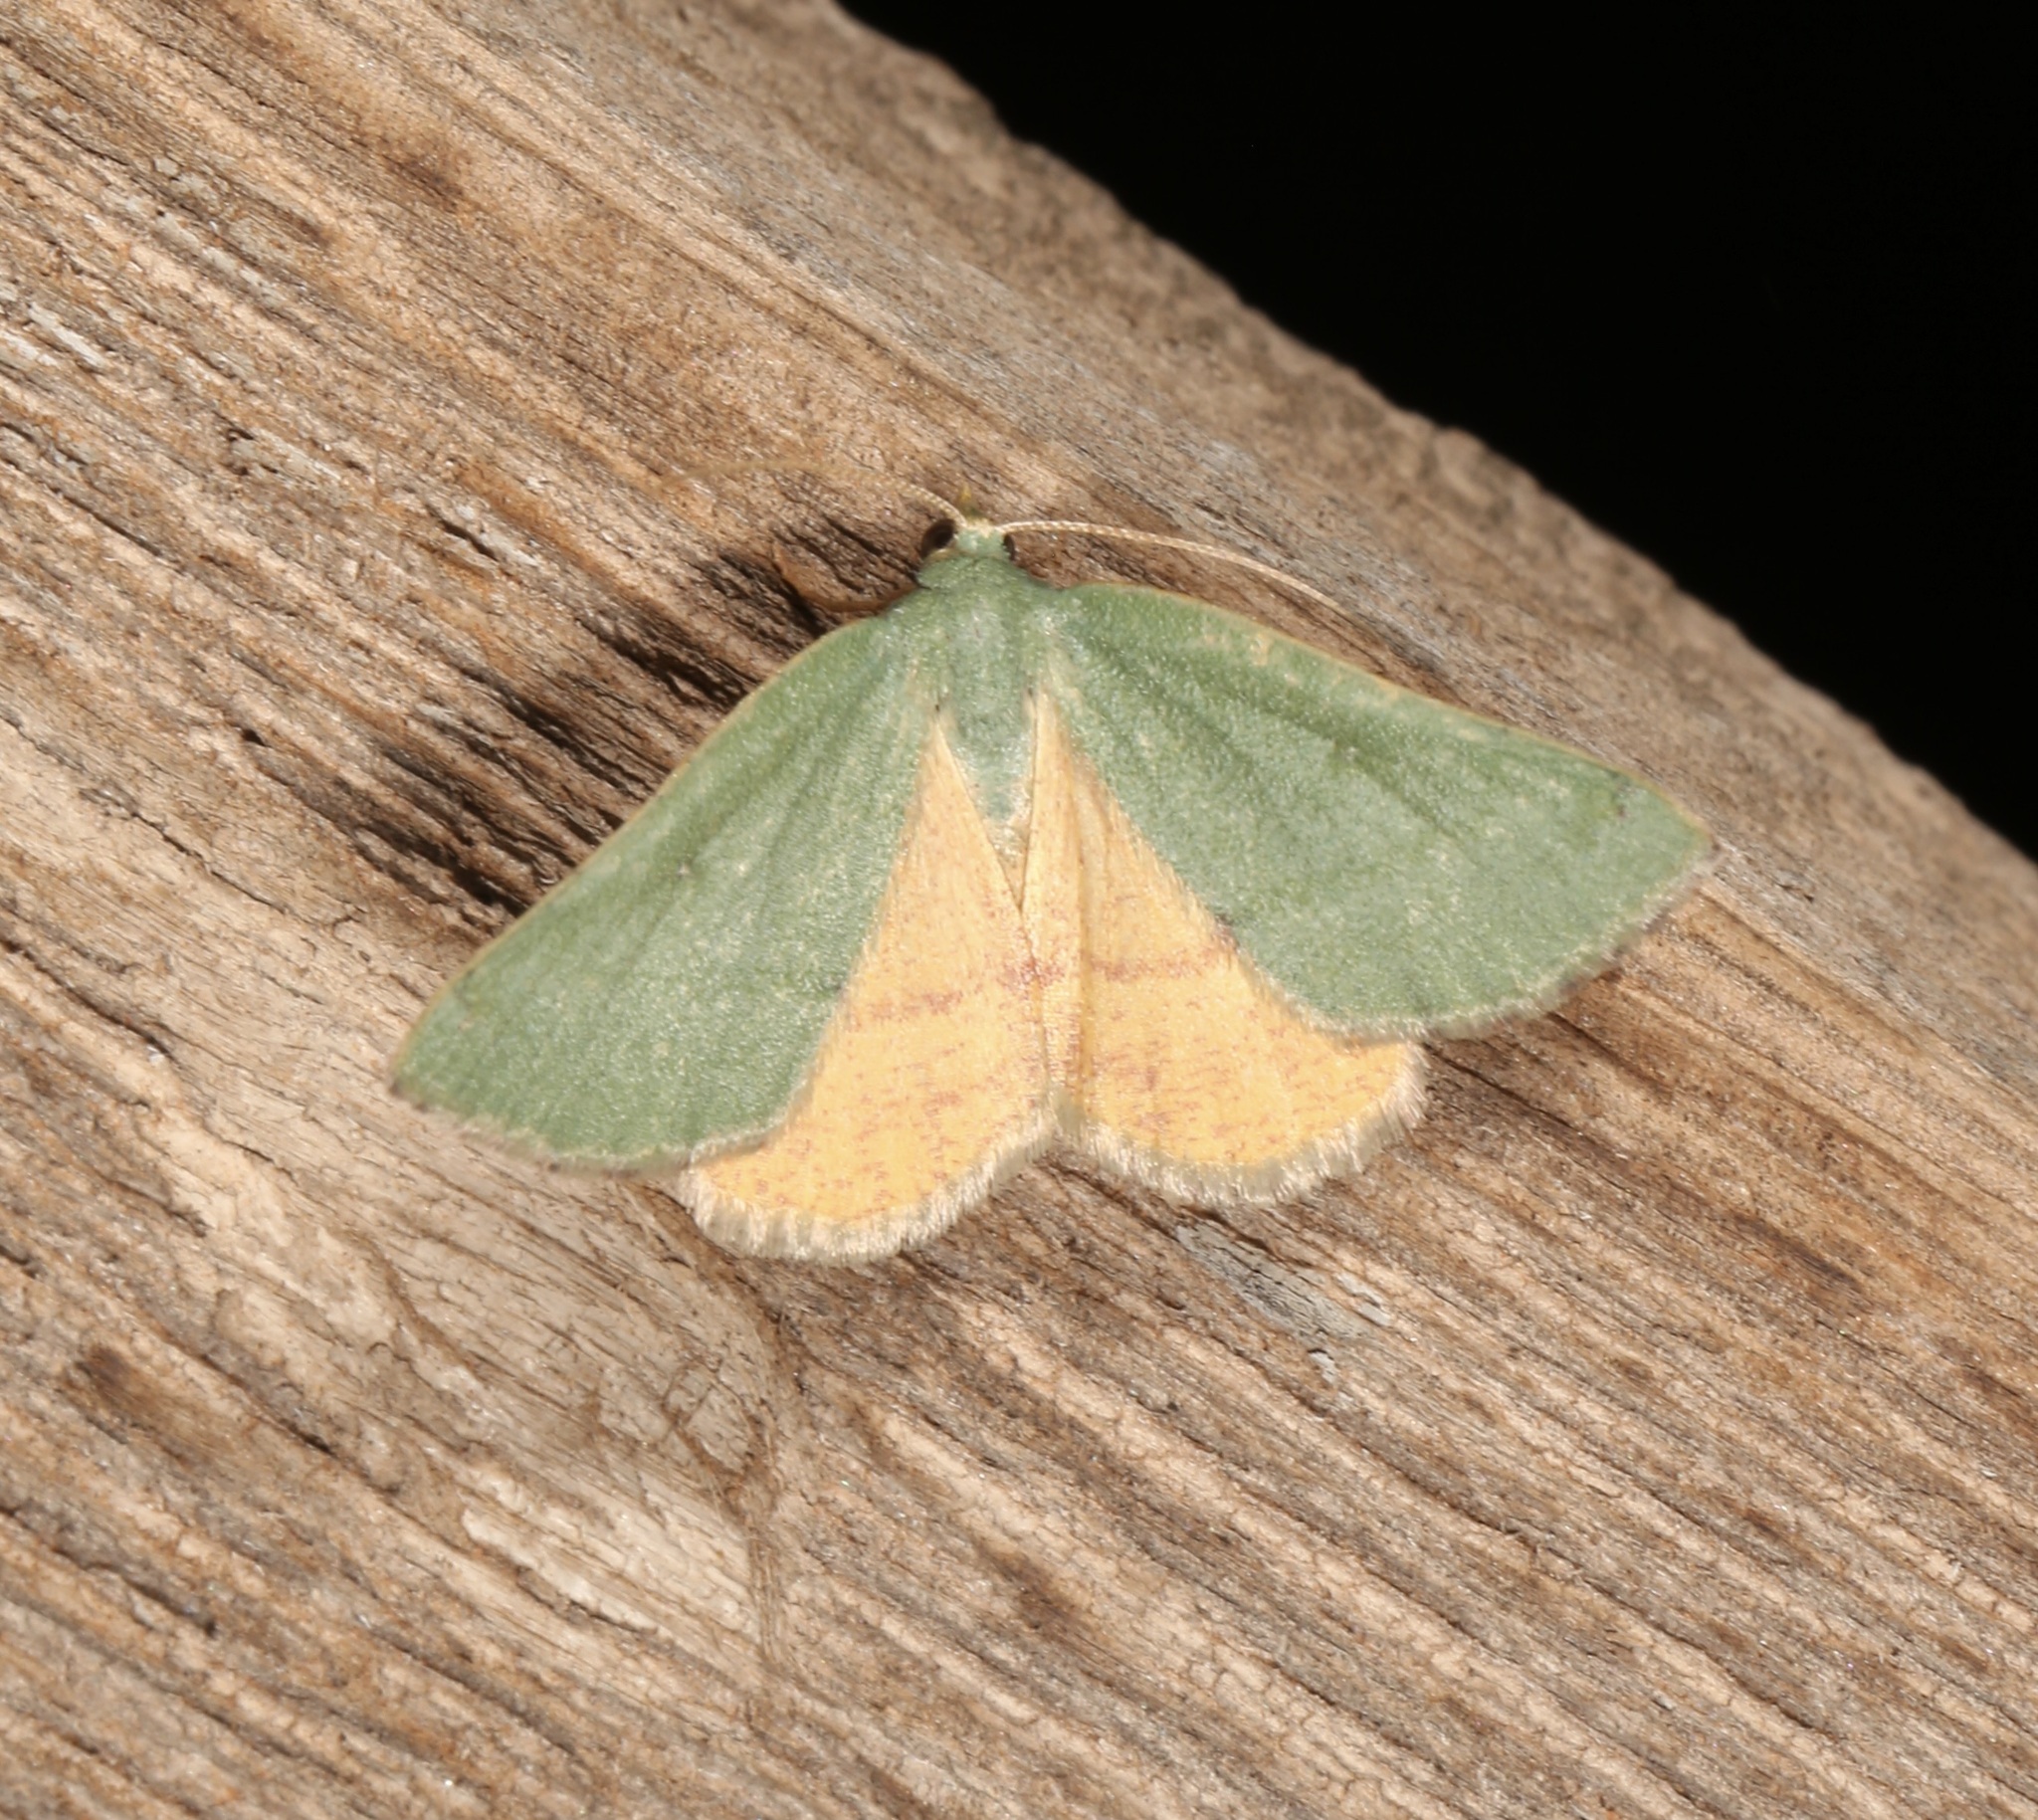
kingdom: Animalia
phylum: Arthropoda
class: Insecta
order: Lepidoptera
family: Geometridae
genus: Chloraspilates
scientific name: Chloraspilates bicoloraria
